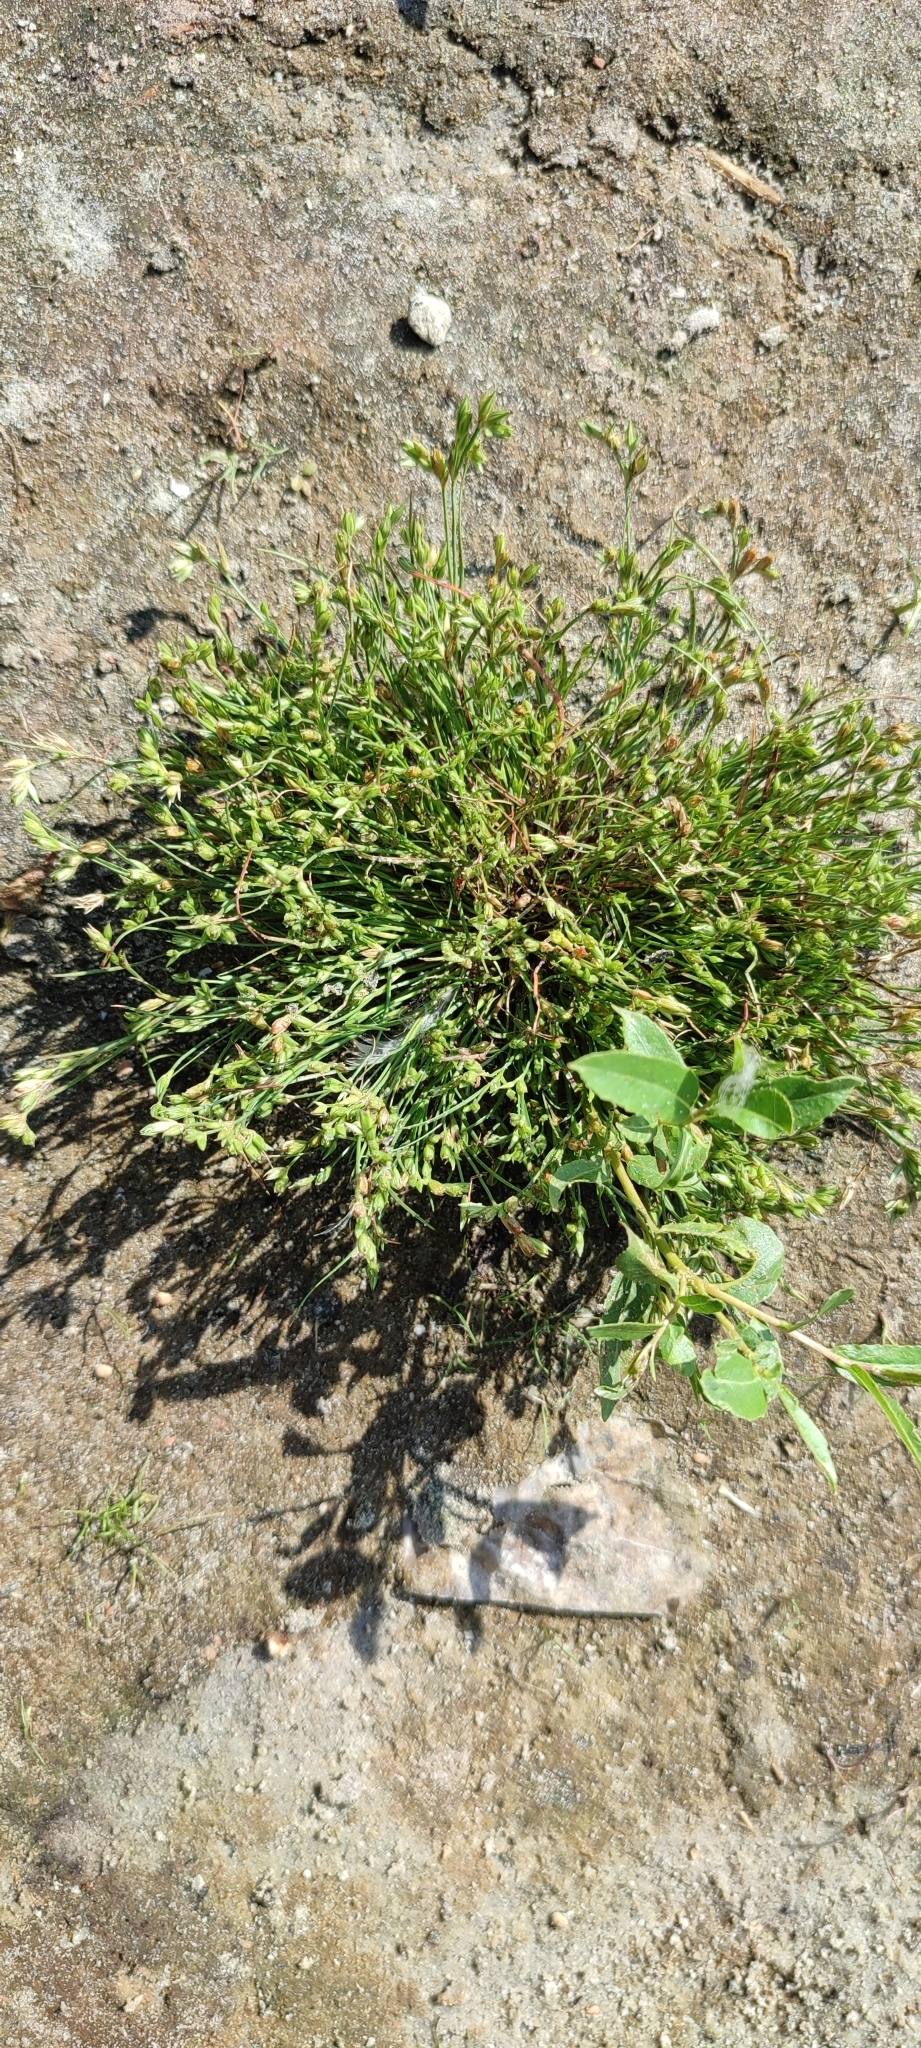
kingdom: Plantae
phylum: Tracheophyta
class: Liliopsida
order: Poales
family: Juncaceae
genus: Juncus
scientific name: Juncus bufonius
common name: Toad rush
